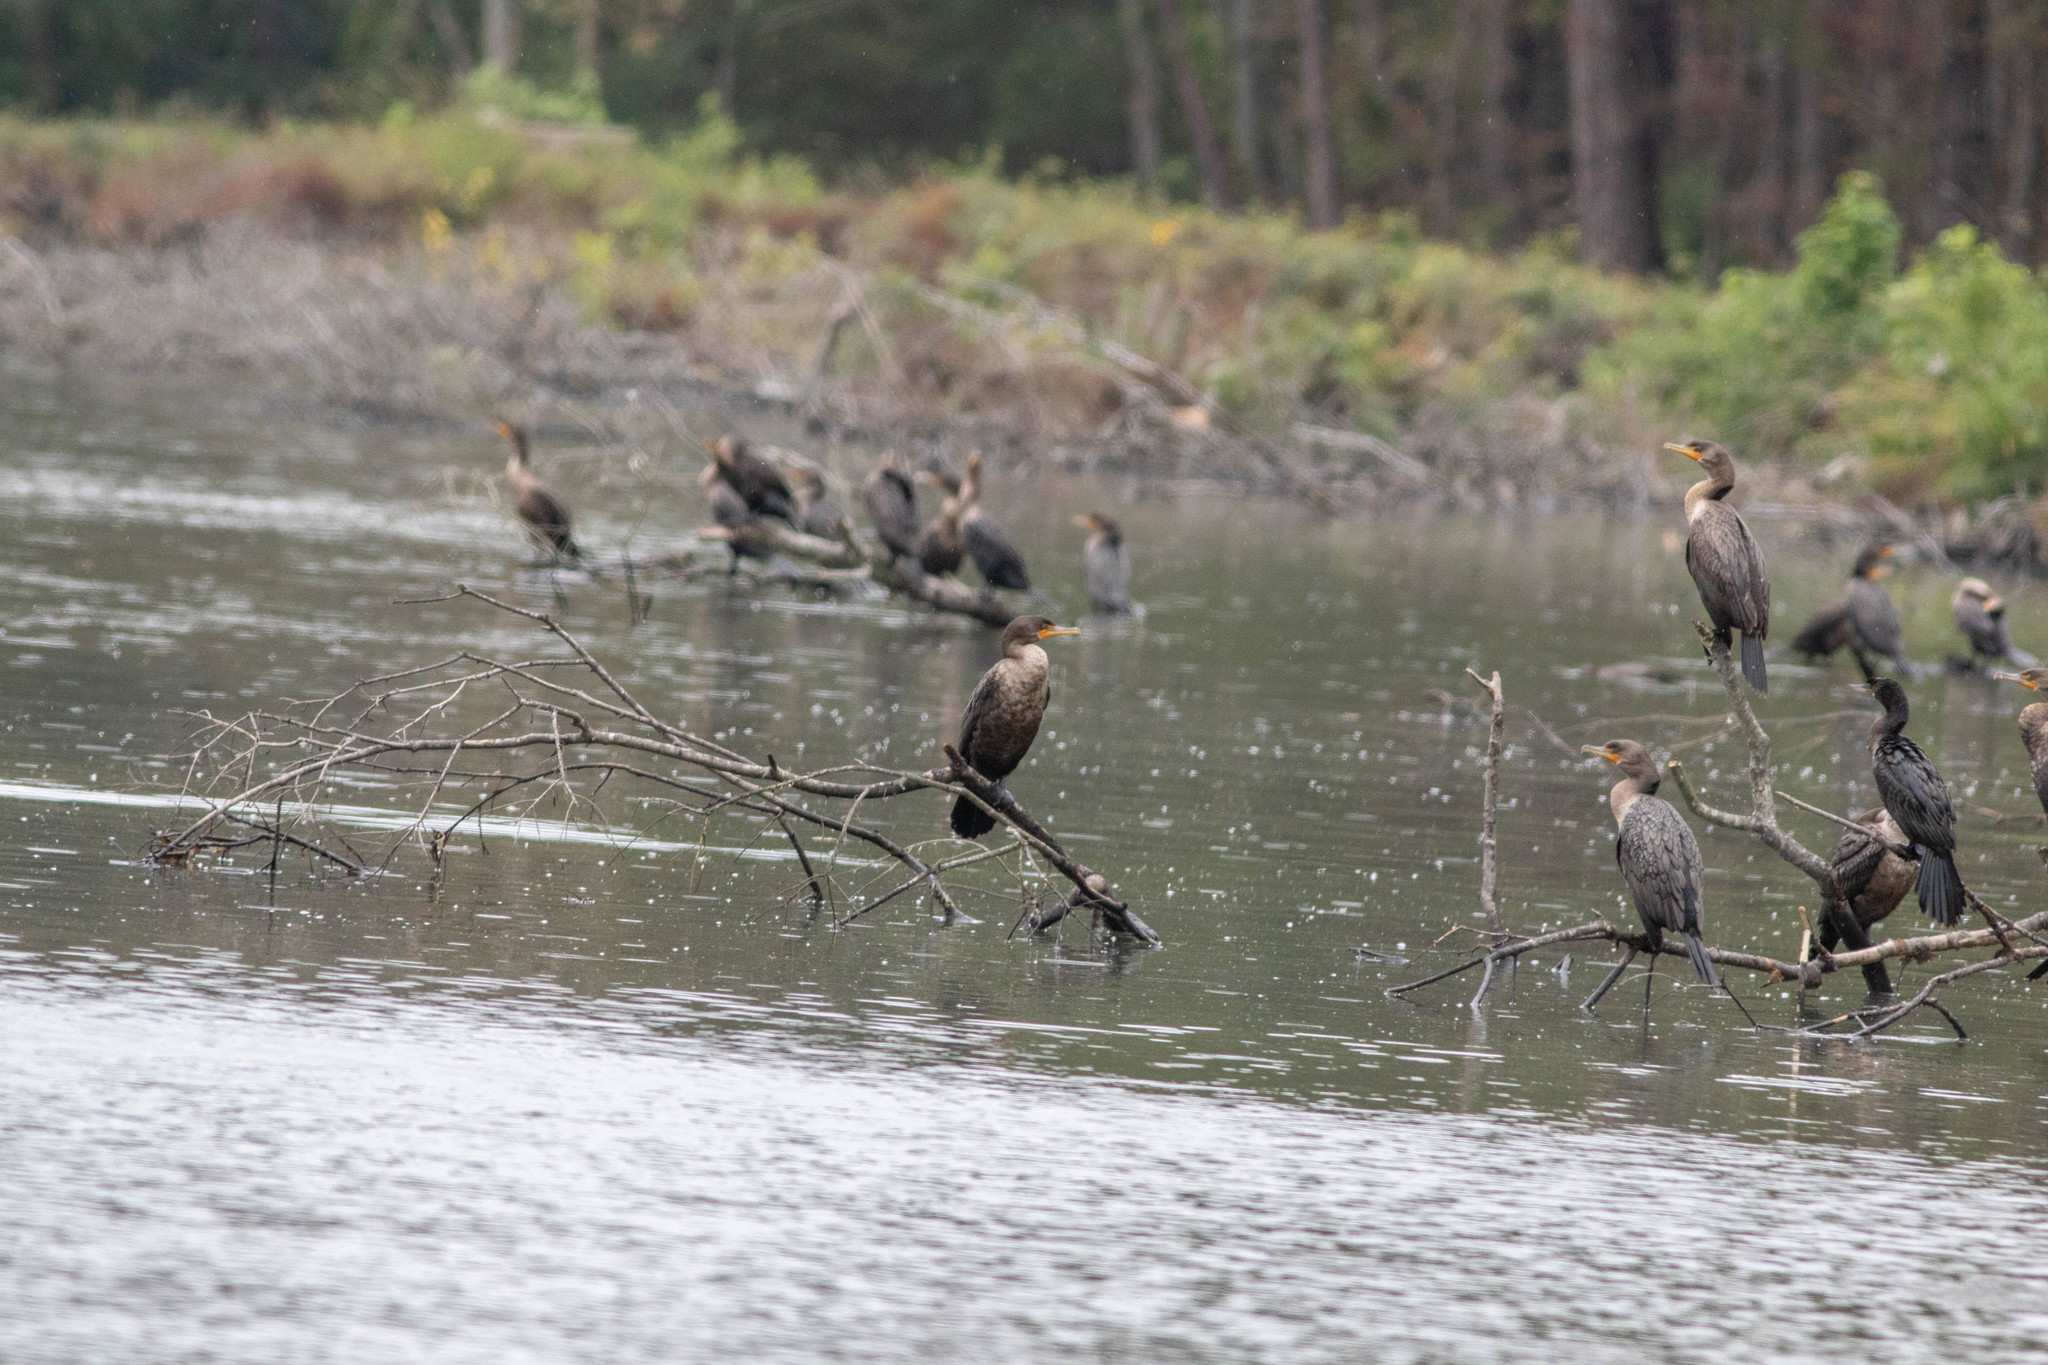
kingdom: Animalia
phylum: Chordata
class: Aves
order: Suliformes
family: Phalacrocoracidae
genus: Phalacrocorax
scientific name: Phalacrocorax auritus
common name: Double-crested cormorant
